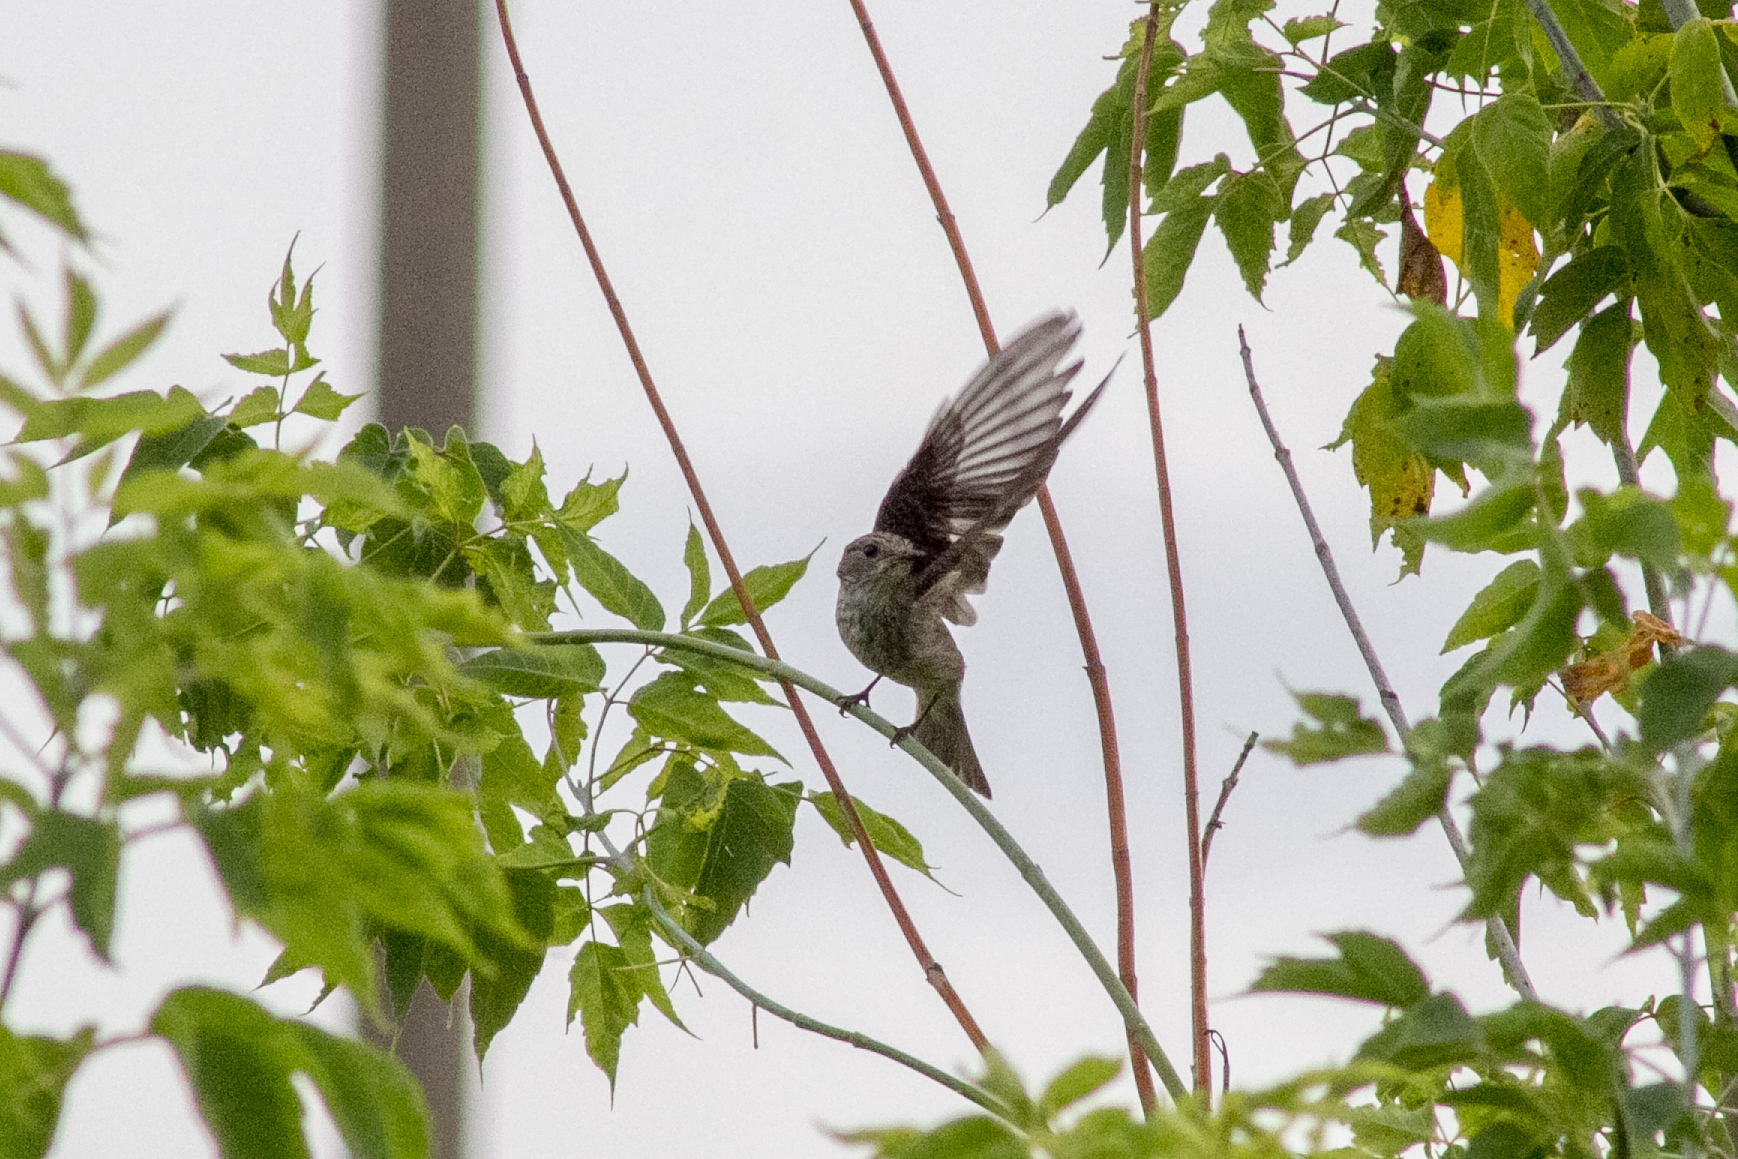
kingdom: Animalia
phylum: Chordata
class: Aves
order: Passeriformes
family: Muscicapidae
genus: Muscicapa
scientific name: Muscicapa striata
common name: Spotted flycatcher
